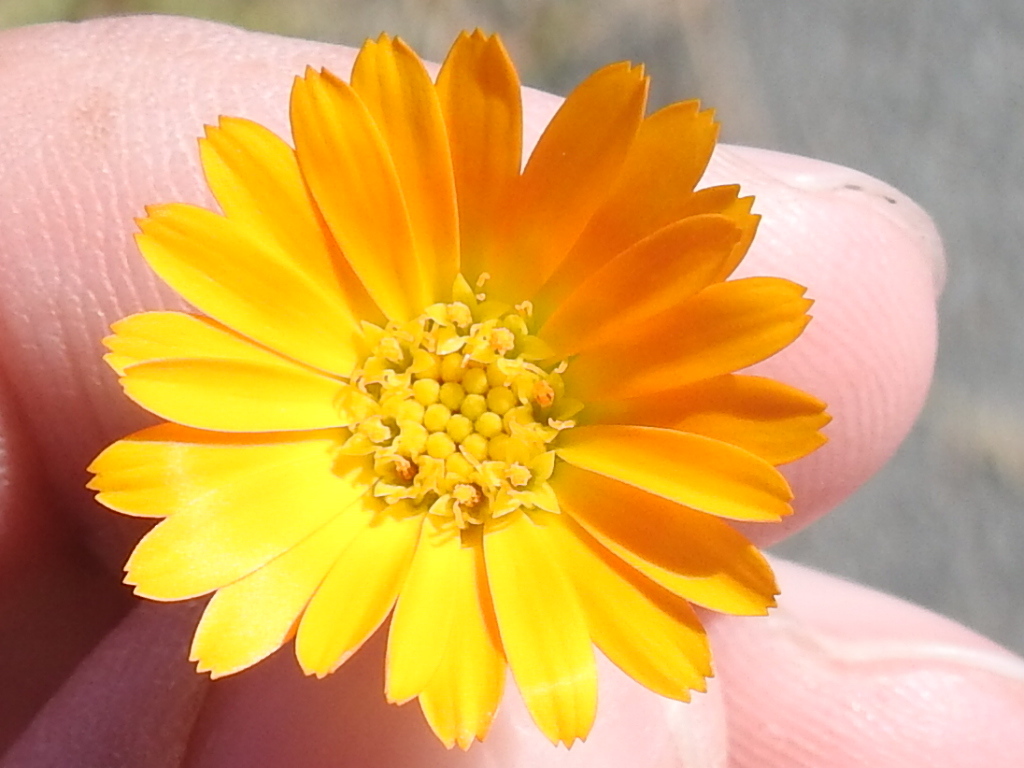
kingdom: Plantae
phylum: Tracheophyta
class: Magnoliopsida
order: Asterales
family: Asteraceae
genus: Calendula
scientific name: Calendula arvensis
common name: Field marigold
